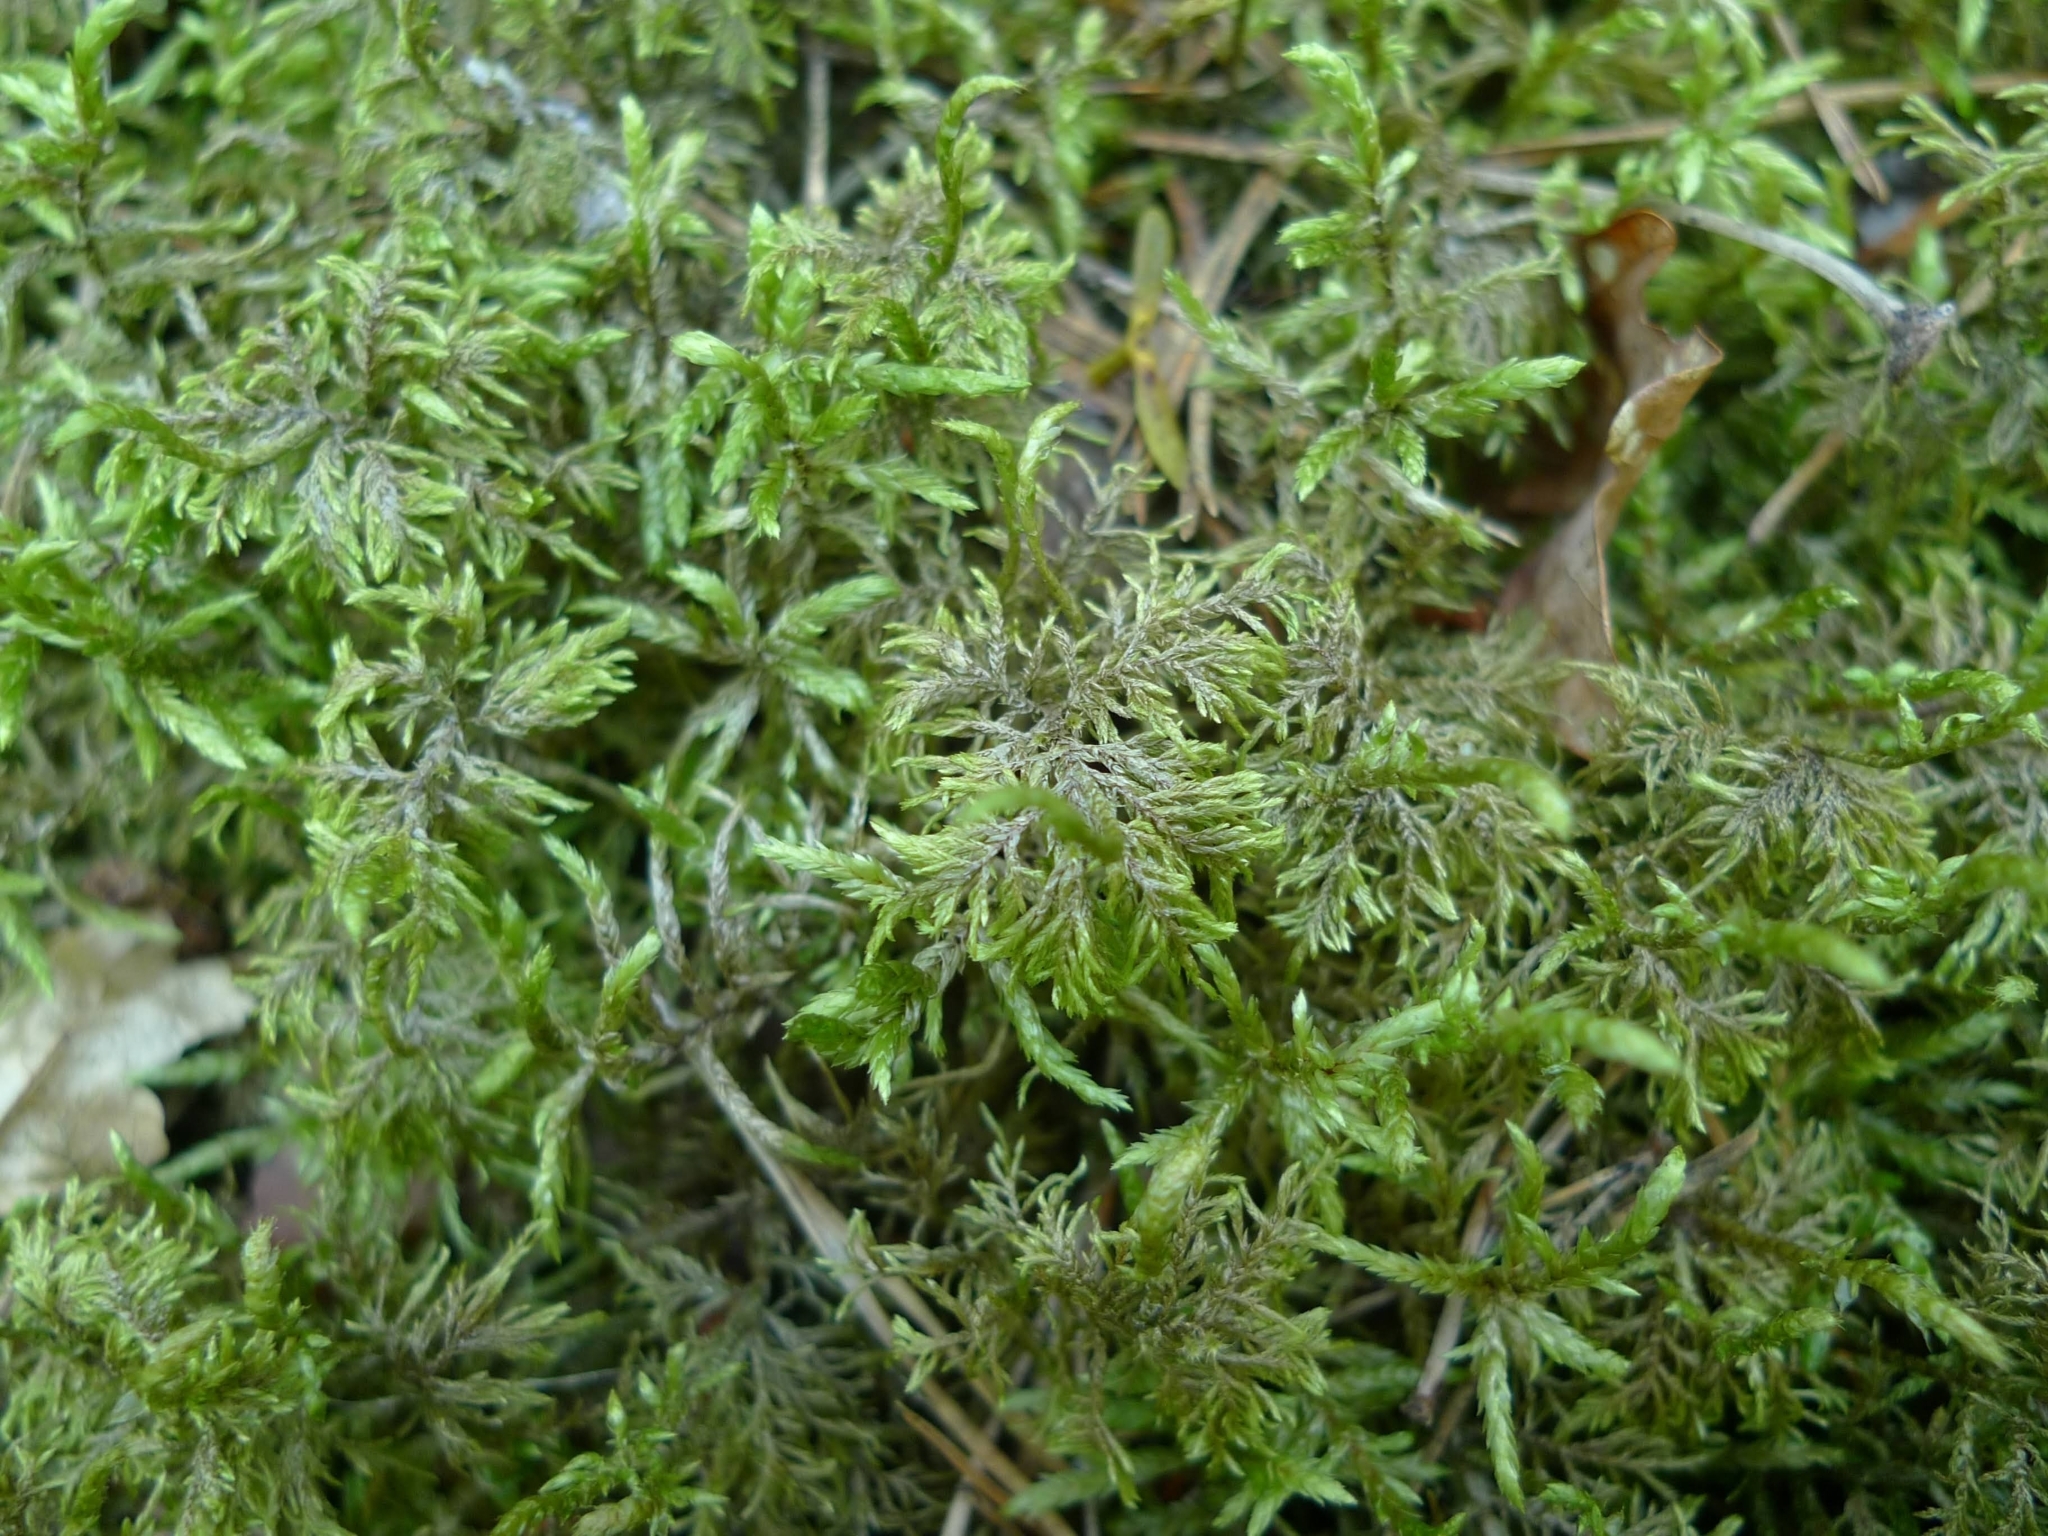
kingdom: Plantae
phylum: Bryophyta
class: Bryopsida
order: Hypnales
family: Hylocomiaceae
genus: Hylocomium
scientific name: Hylocomium splendens
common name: Stairstep moss
